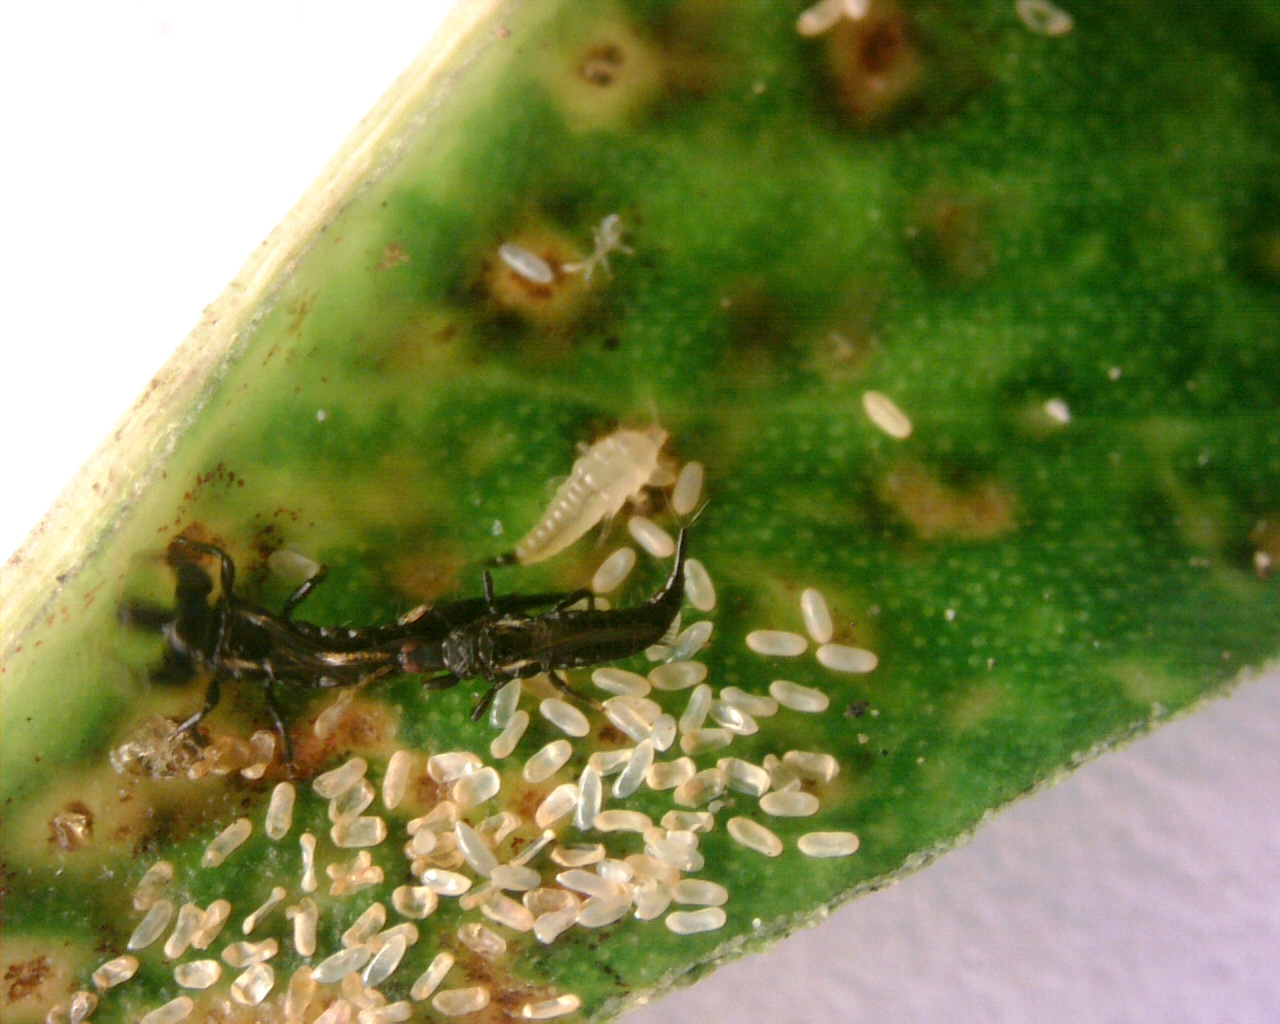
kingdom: Animalia
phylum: Arthropoda
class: Insecta
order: Thysanoptera
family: Phlaeothripidae
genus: Gynaikothrips
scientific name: Gynaikothrips uzeli
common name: Leaf-gall thrips
